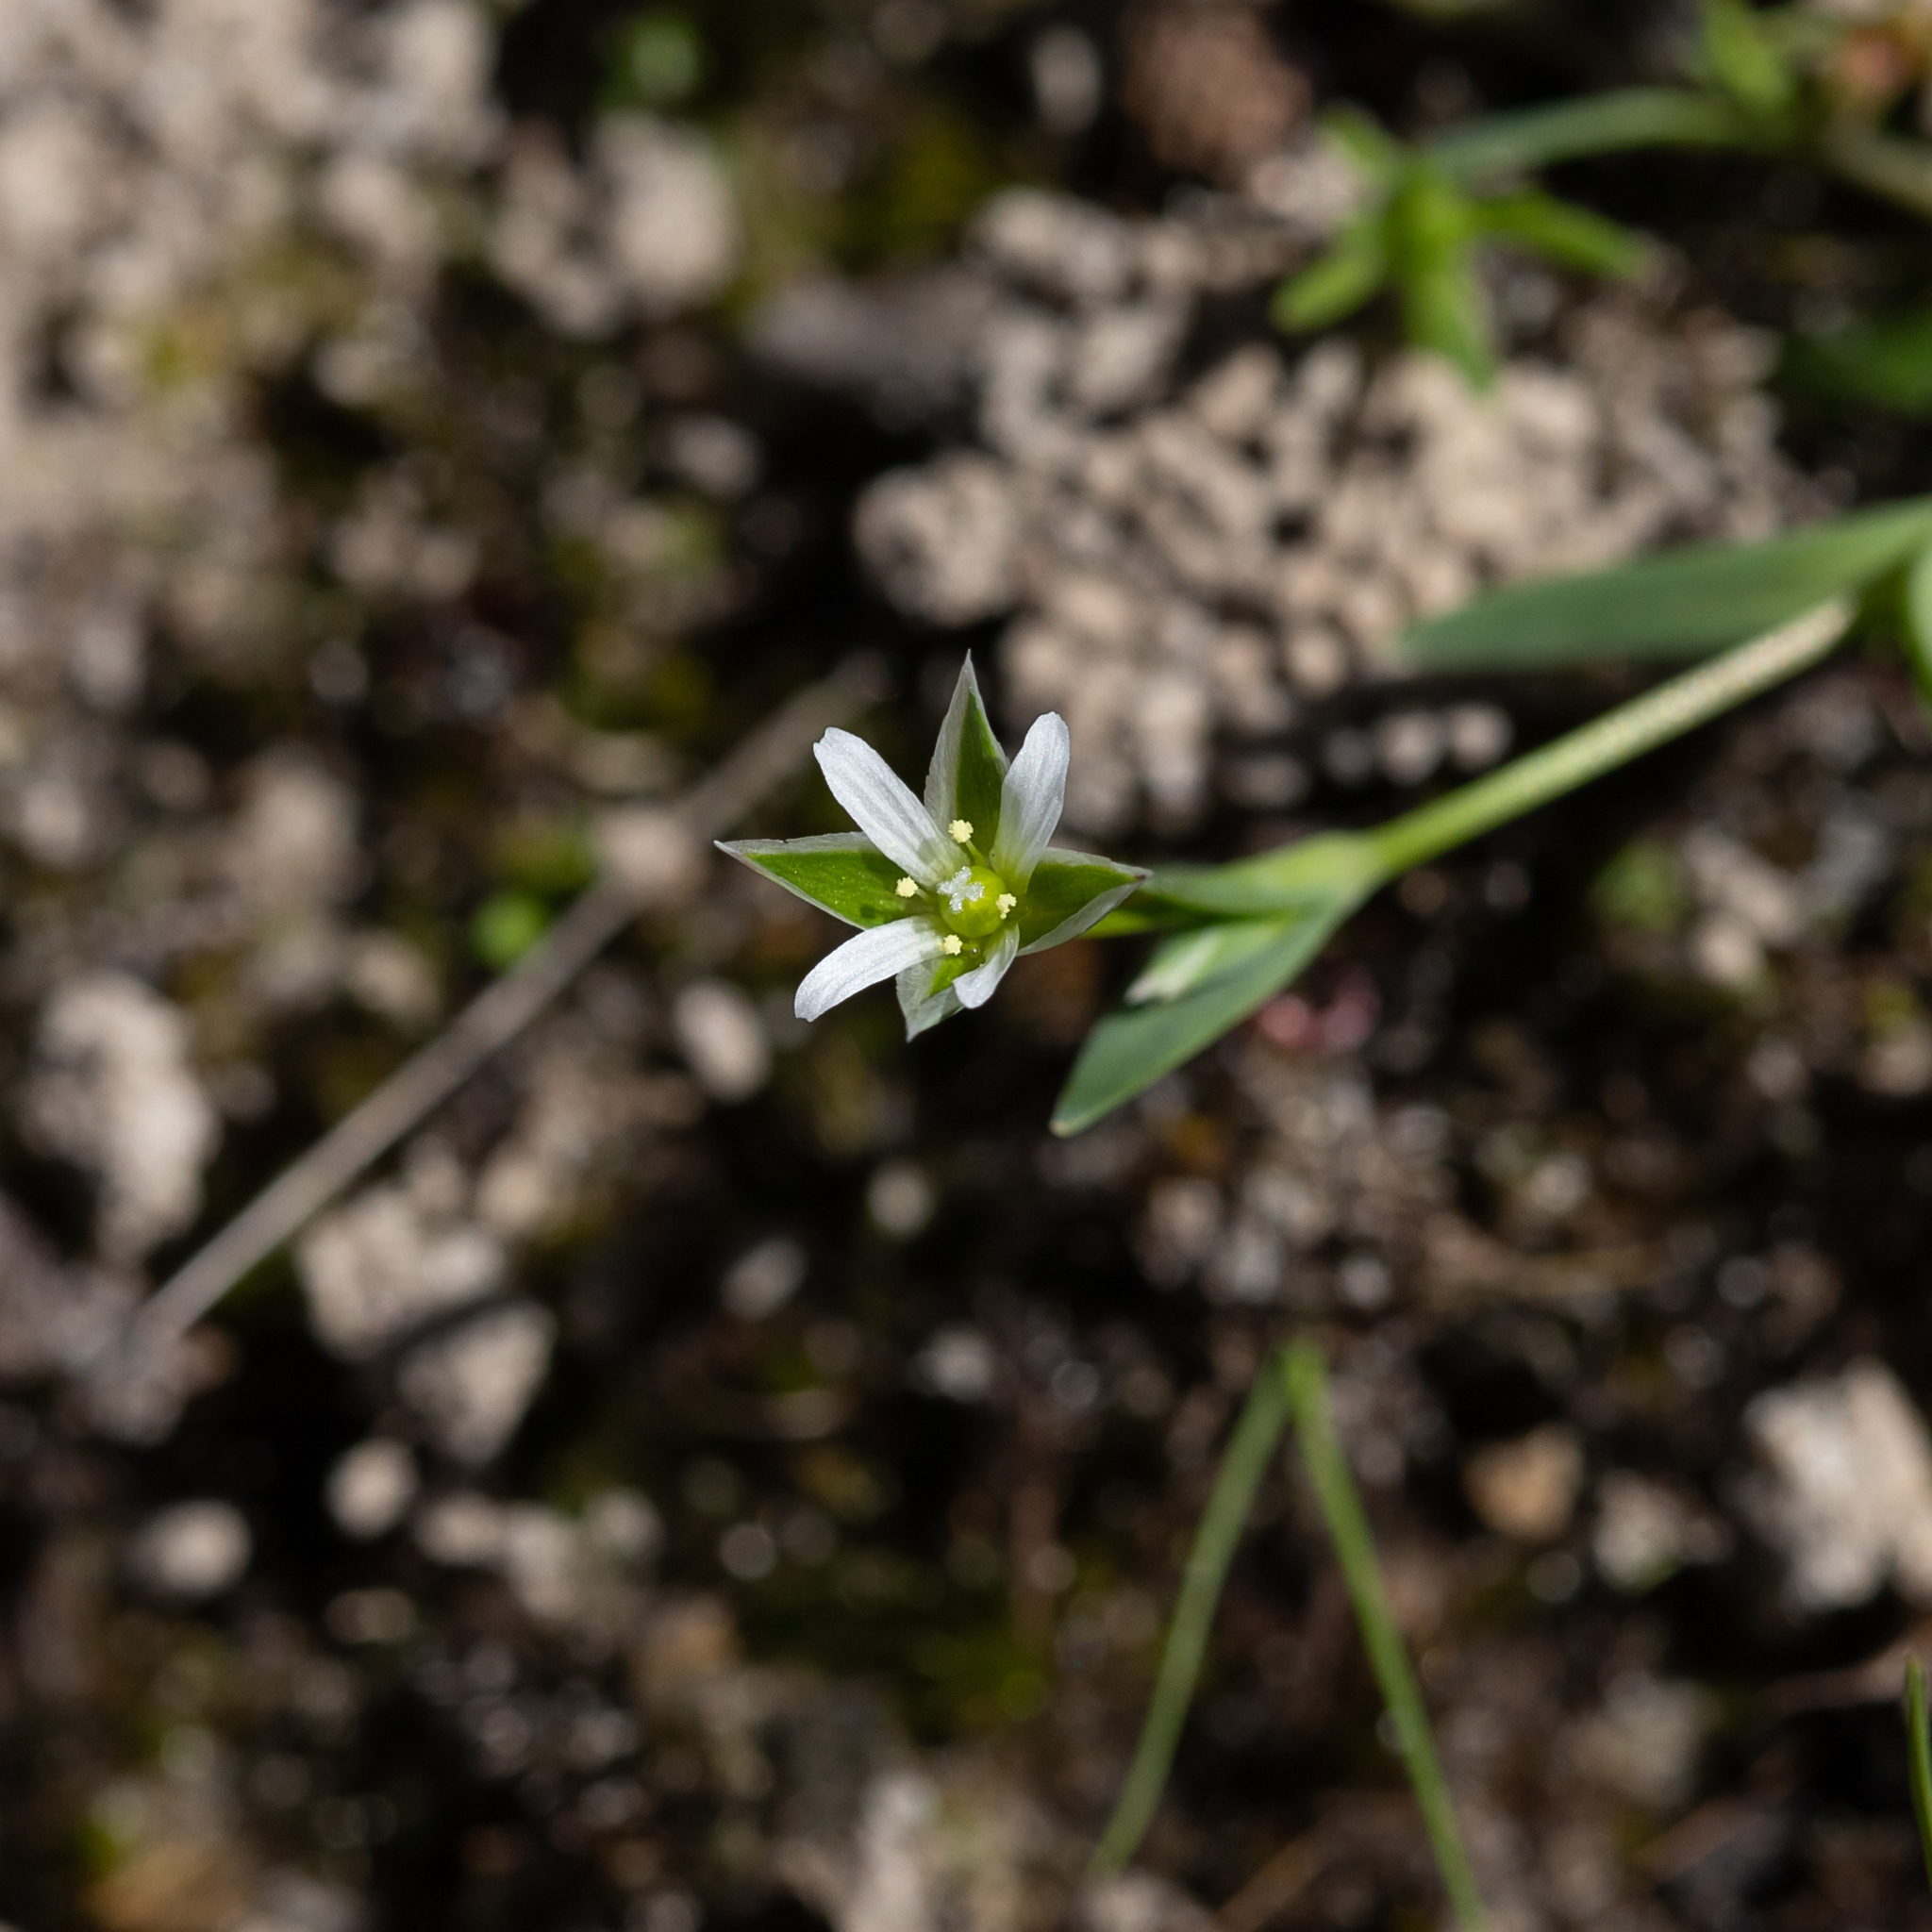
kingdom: Plantae
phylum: Tracheophyta
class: Magnoliopsida
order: Caryophyllales
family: Caryophyllaceae
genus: Moenchia
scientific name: Moenchia erecta
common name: Upright chickweed
